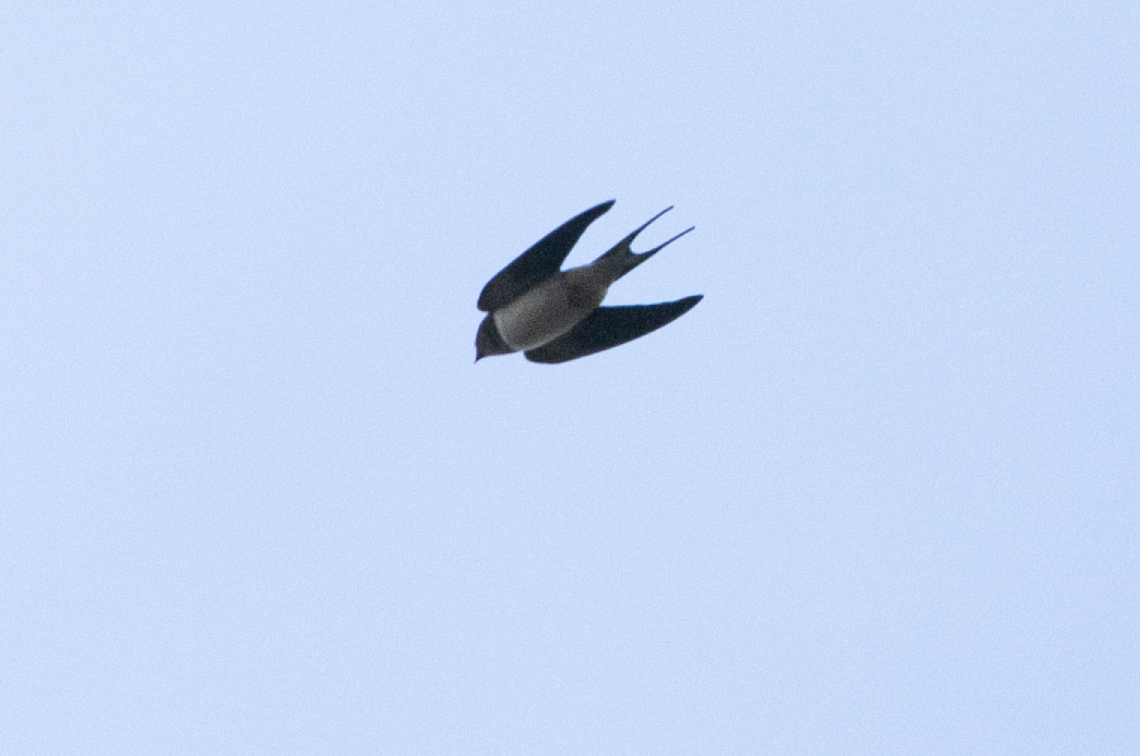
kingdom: Animalia
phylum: Chordata
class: Aves
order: Passeriformes
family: Hirundinidae
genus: Hirundo
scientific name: Hirundo rustica
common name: Barn swallow
